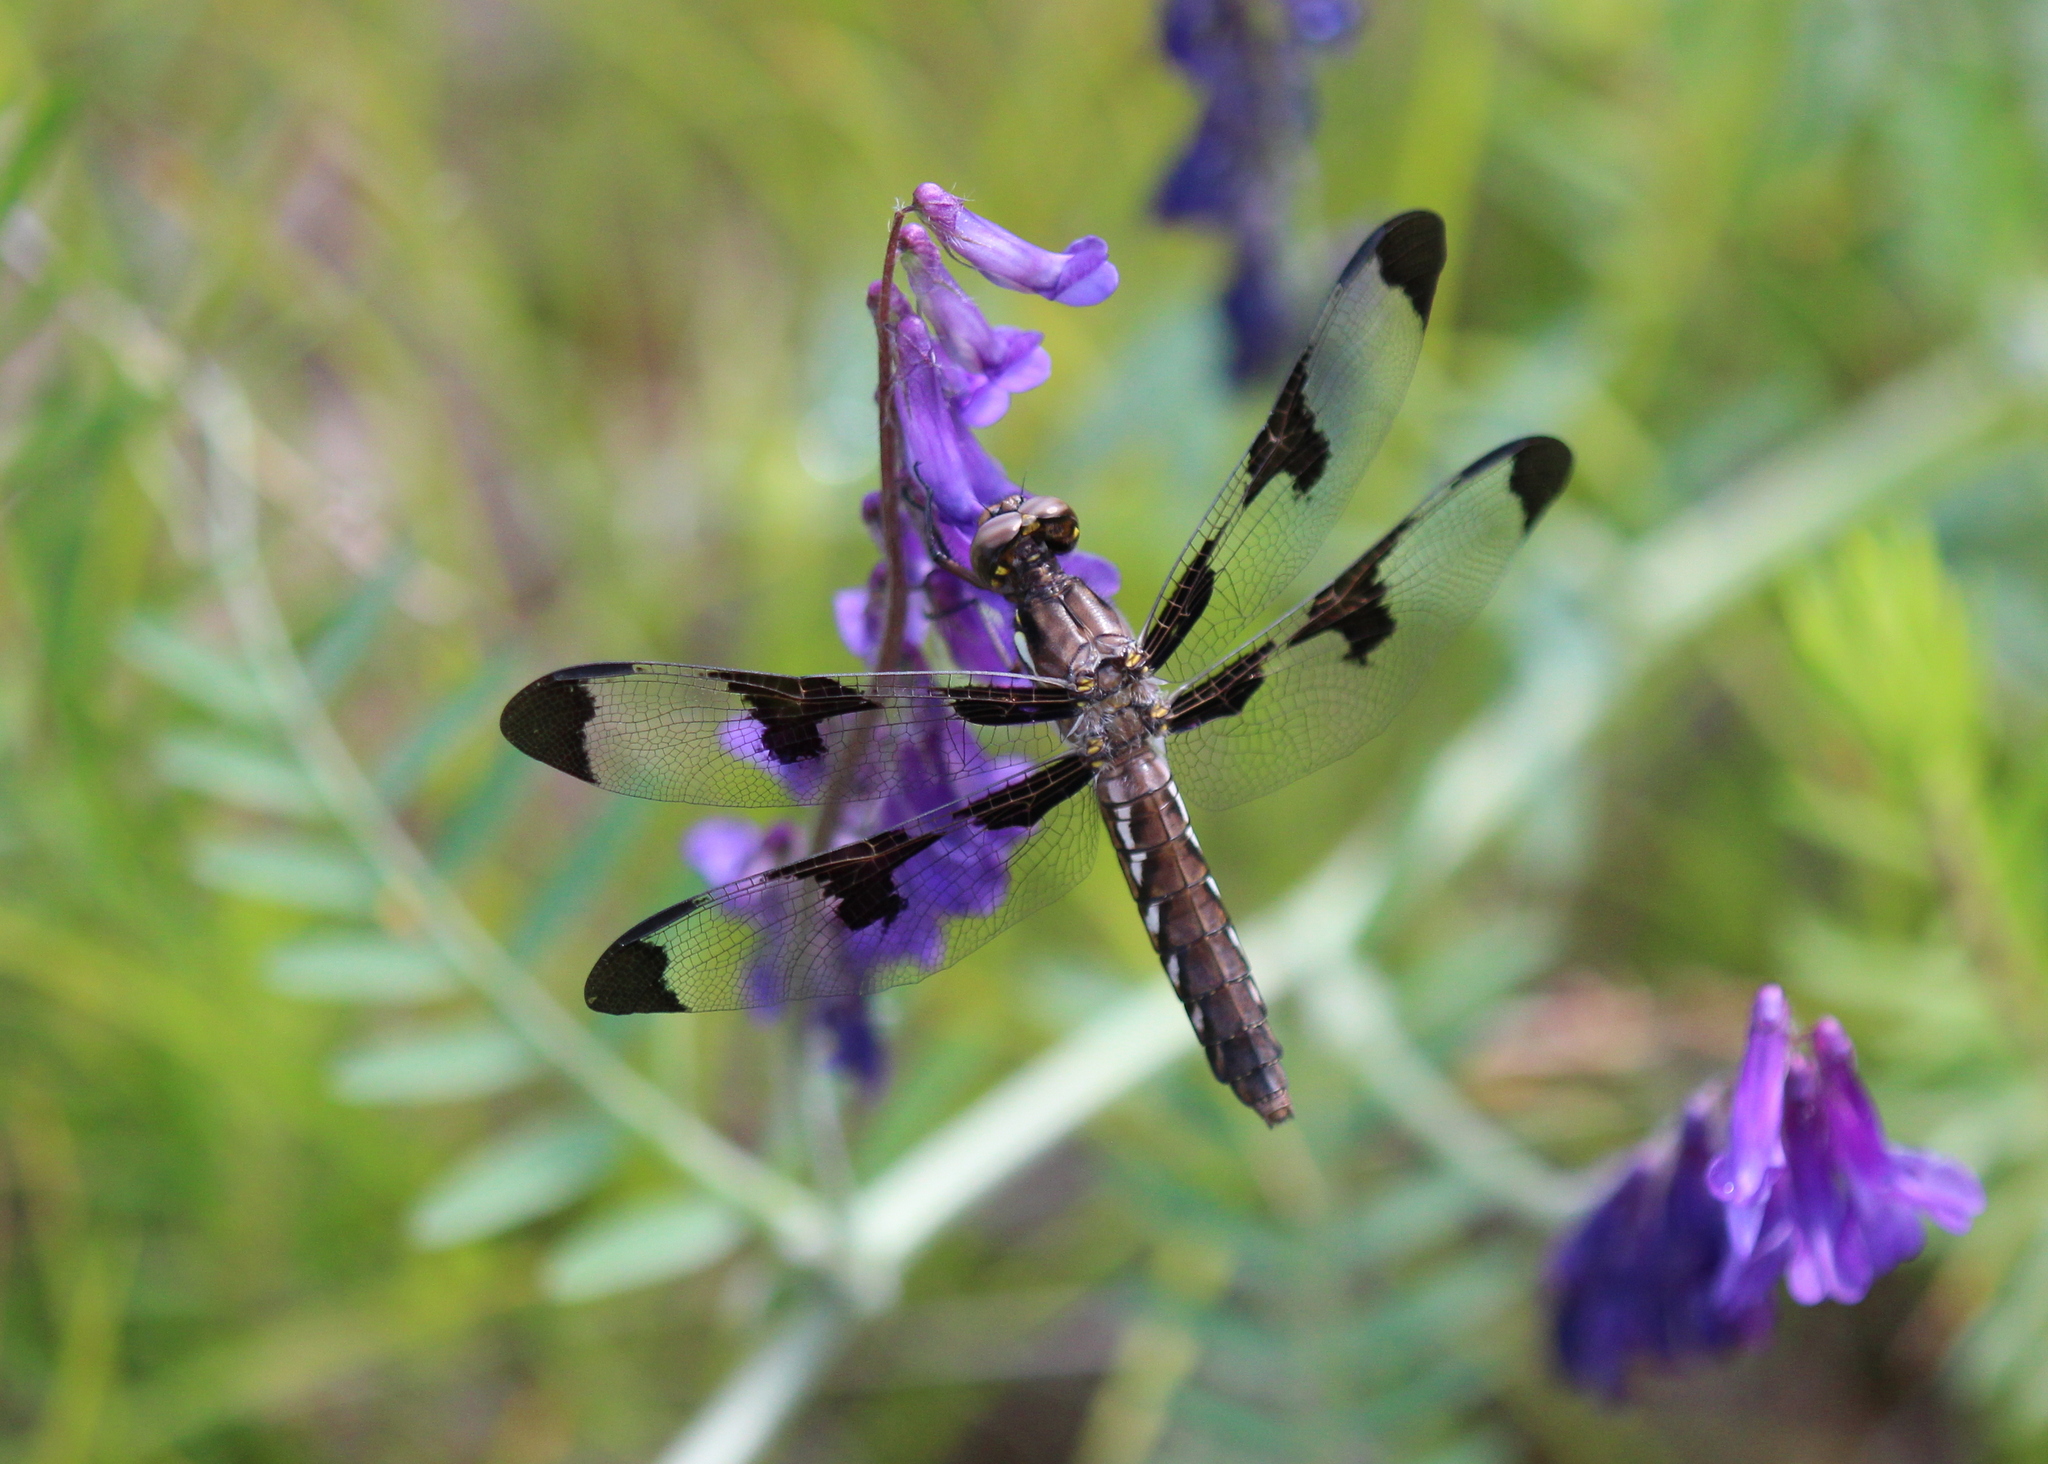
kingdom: Animalia
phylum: Arthropoda
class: Insecta
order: Odonata
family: Libellulidae
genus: Plathemis
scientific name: Plathemis lydia
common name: Common whitetail
